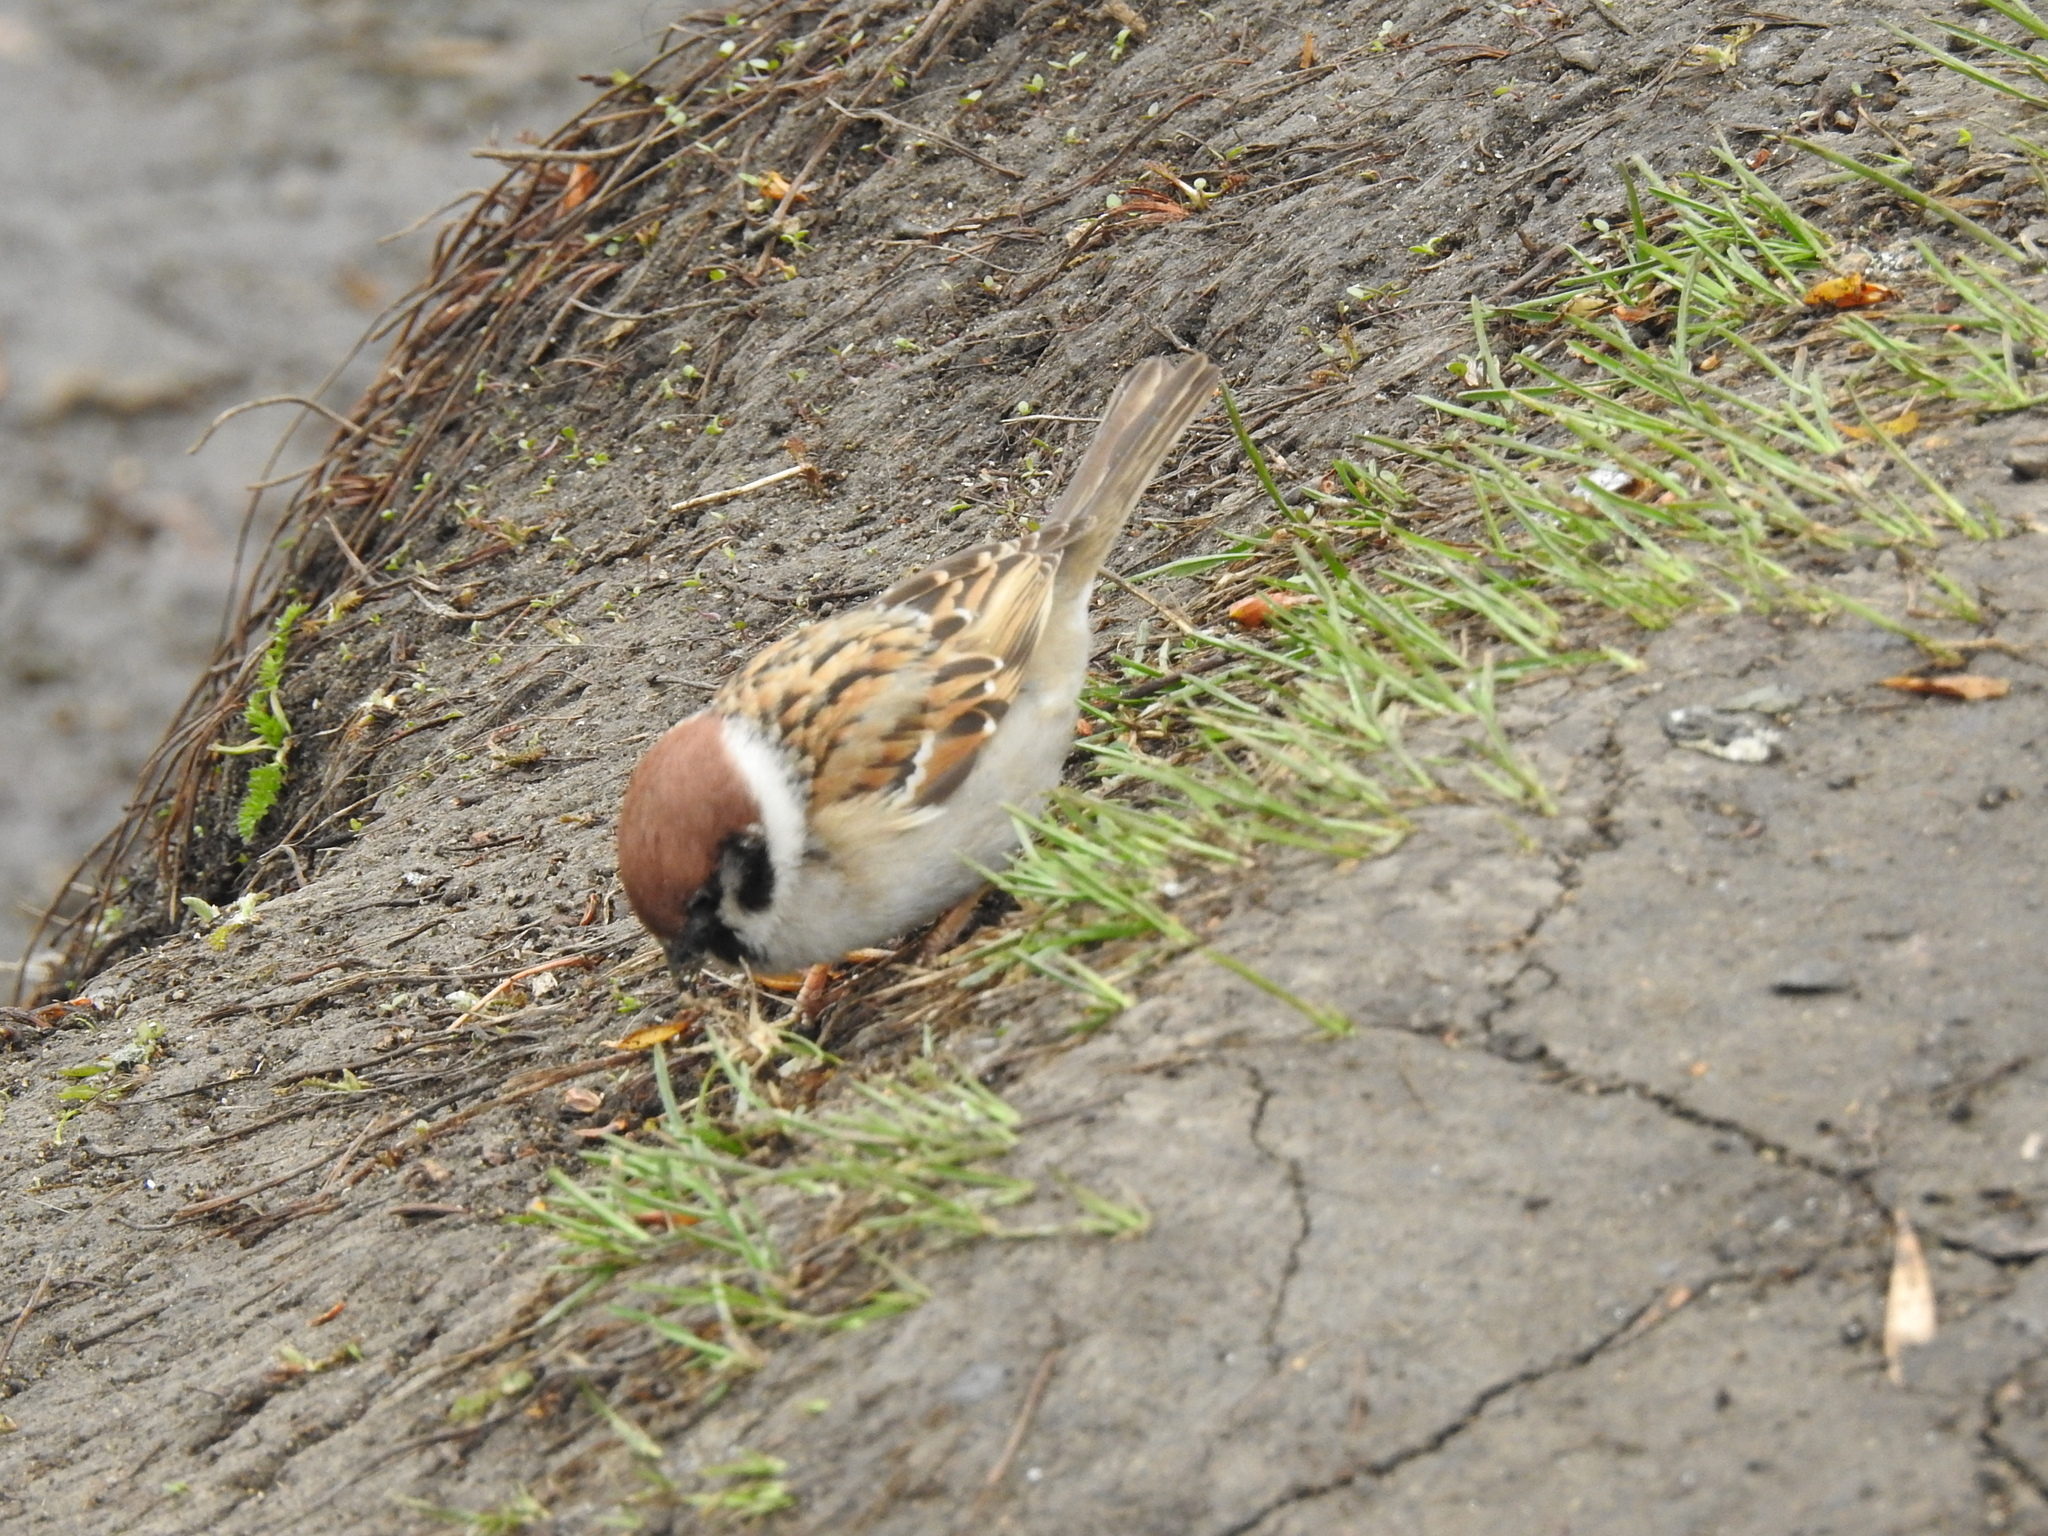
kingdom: Animalia
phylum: Chordata
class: Aves
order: Passeriformes
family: Passeridae
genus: Passer
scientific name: Passer montanus
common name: Eurasian tree sparrow
